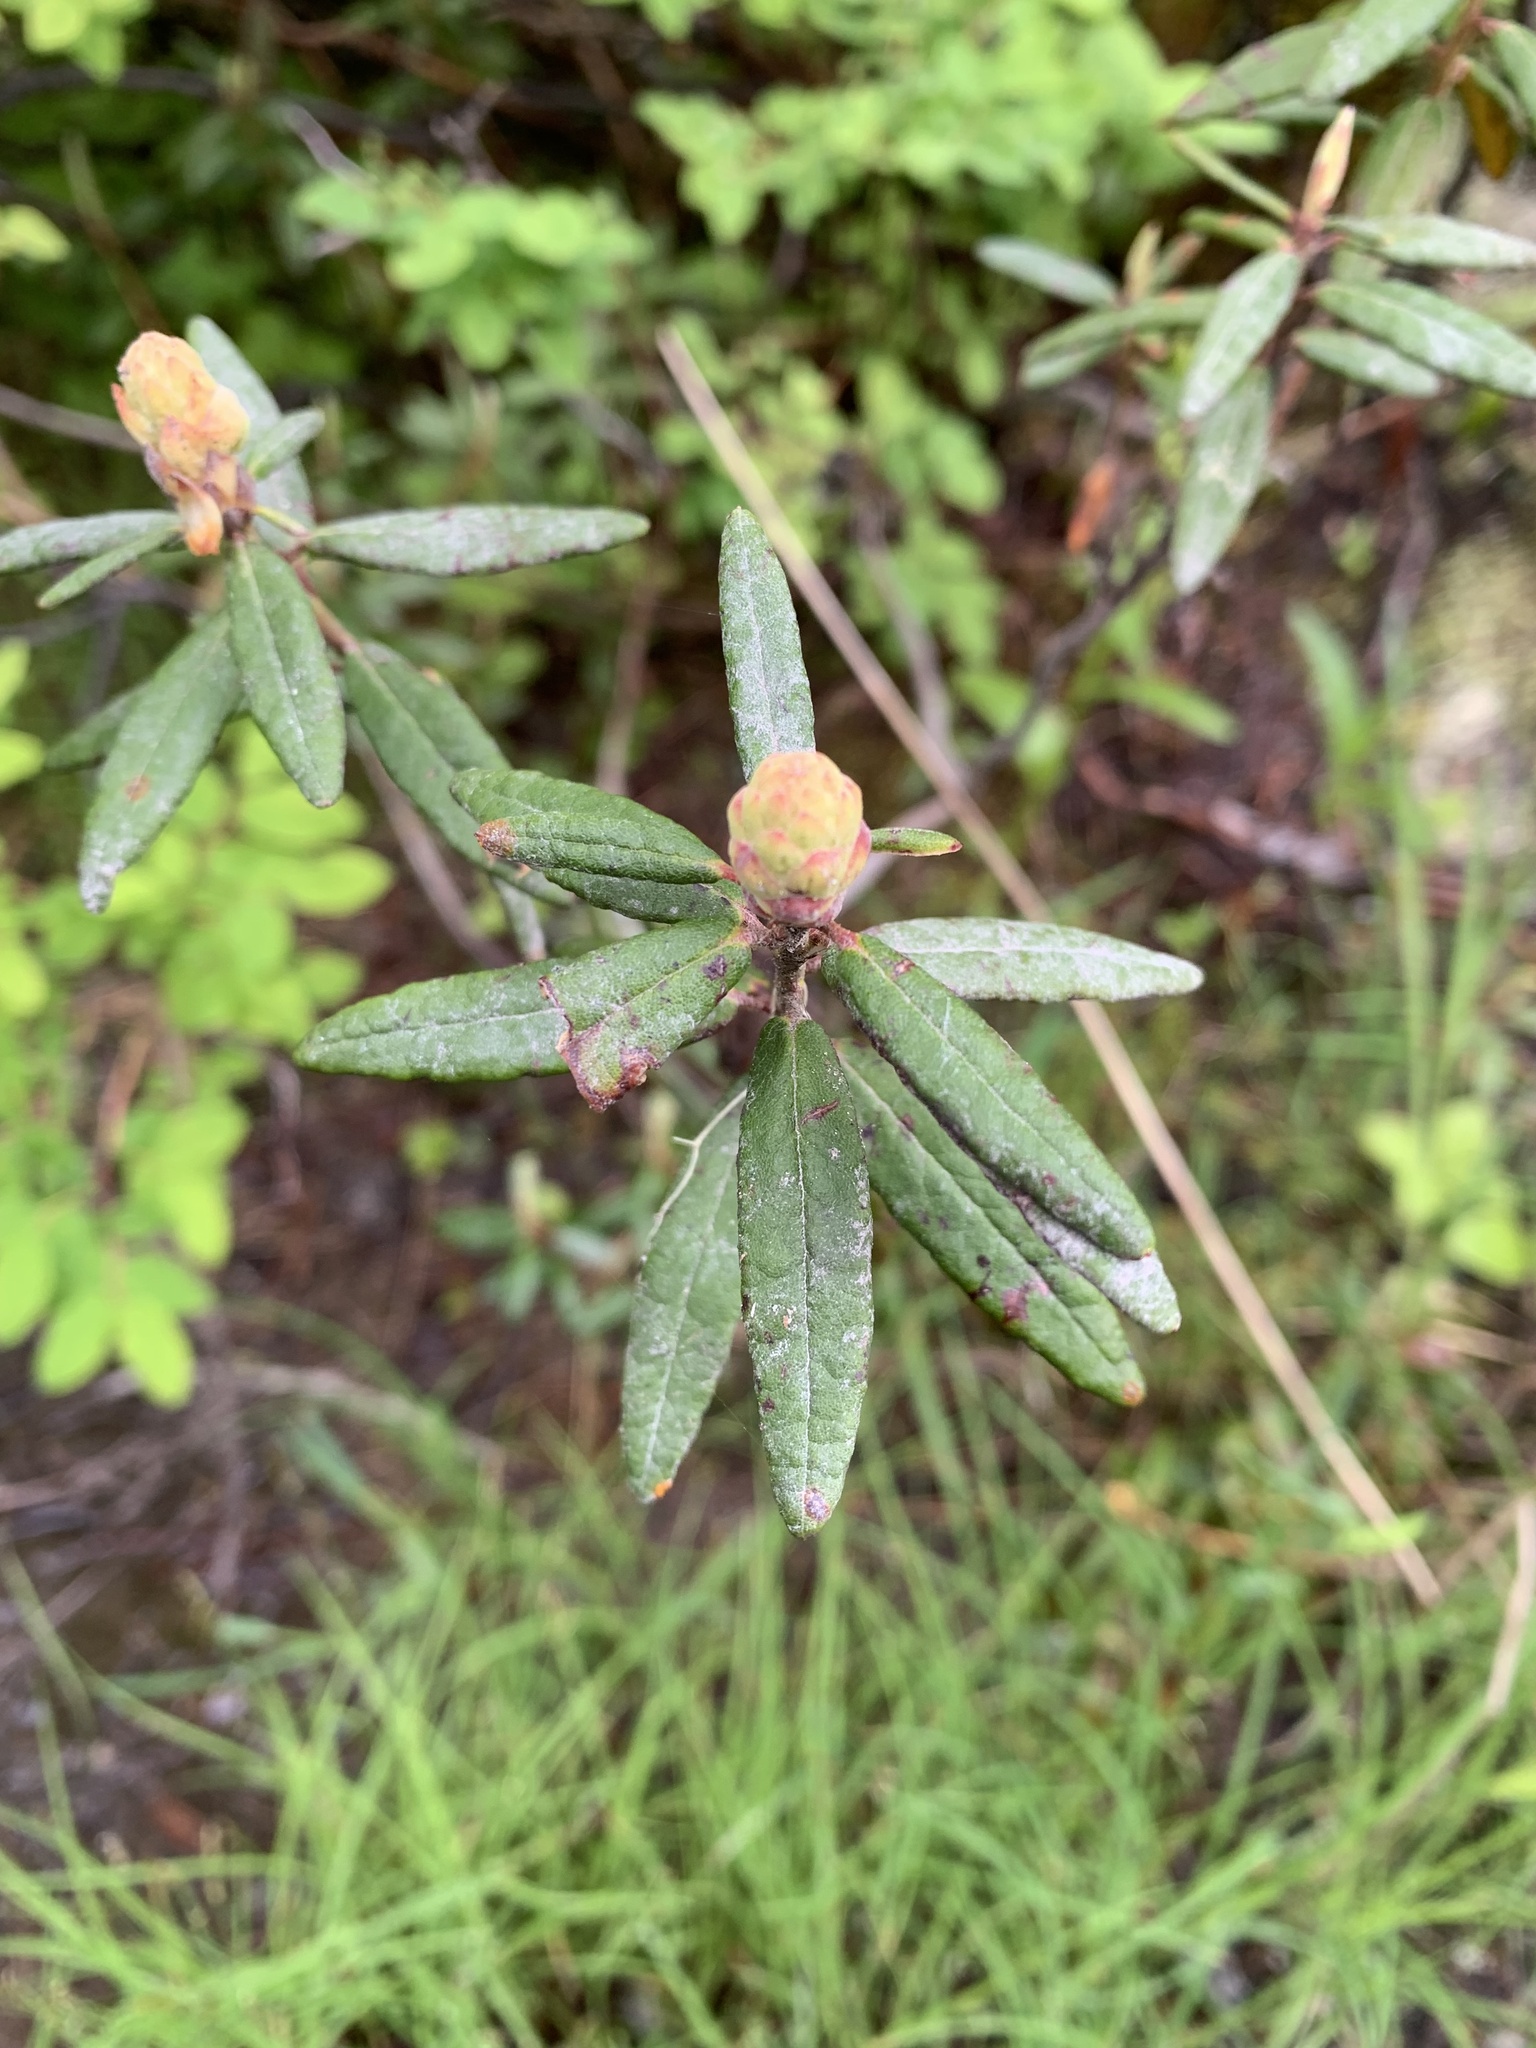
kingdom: Plantae
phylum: Tracheophyta
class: Magnoliopsida
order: Ericales
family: Ericaceae
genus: Rhododendron
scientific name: Rhododendron groenlandicum
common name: Bog labrador tea
